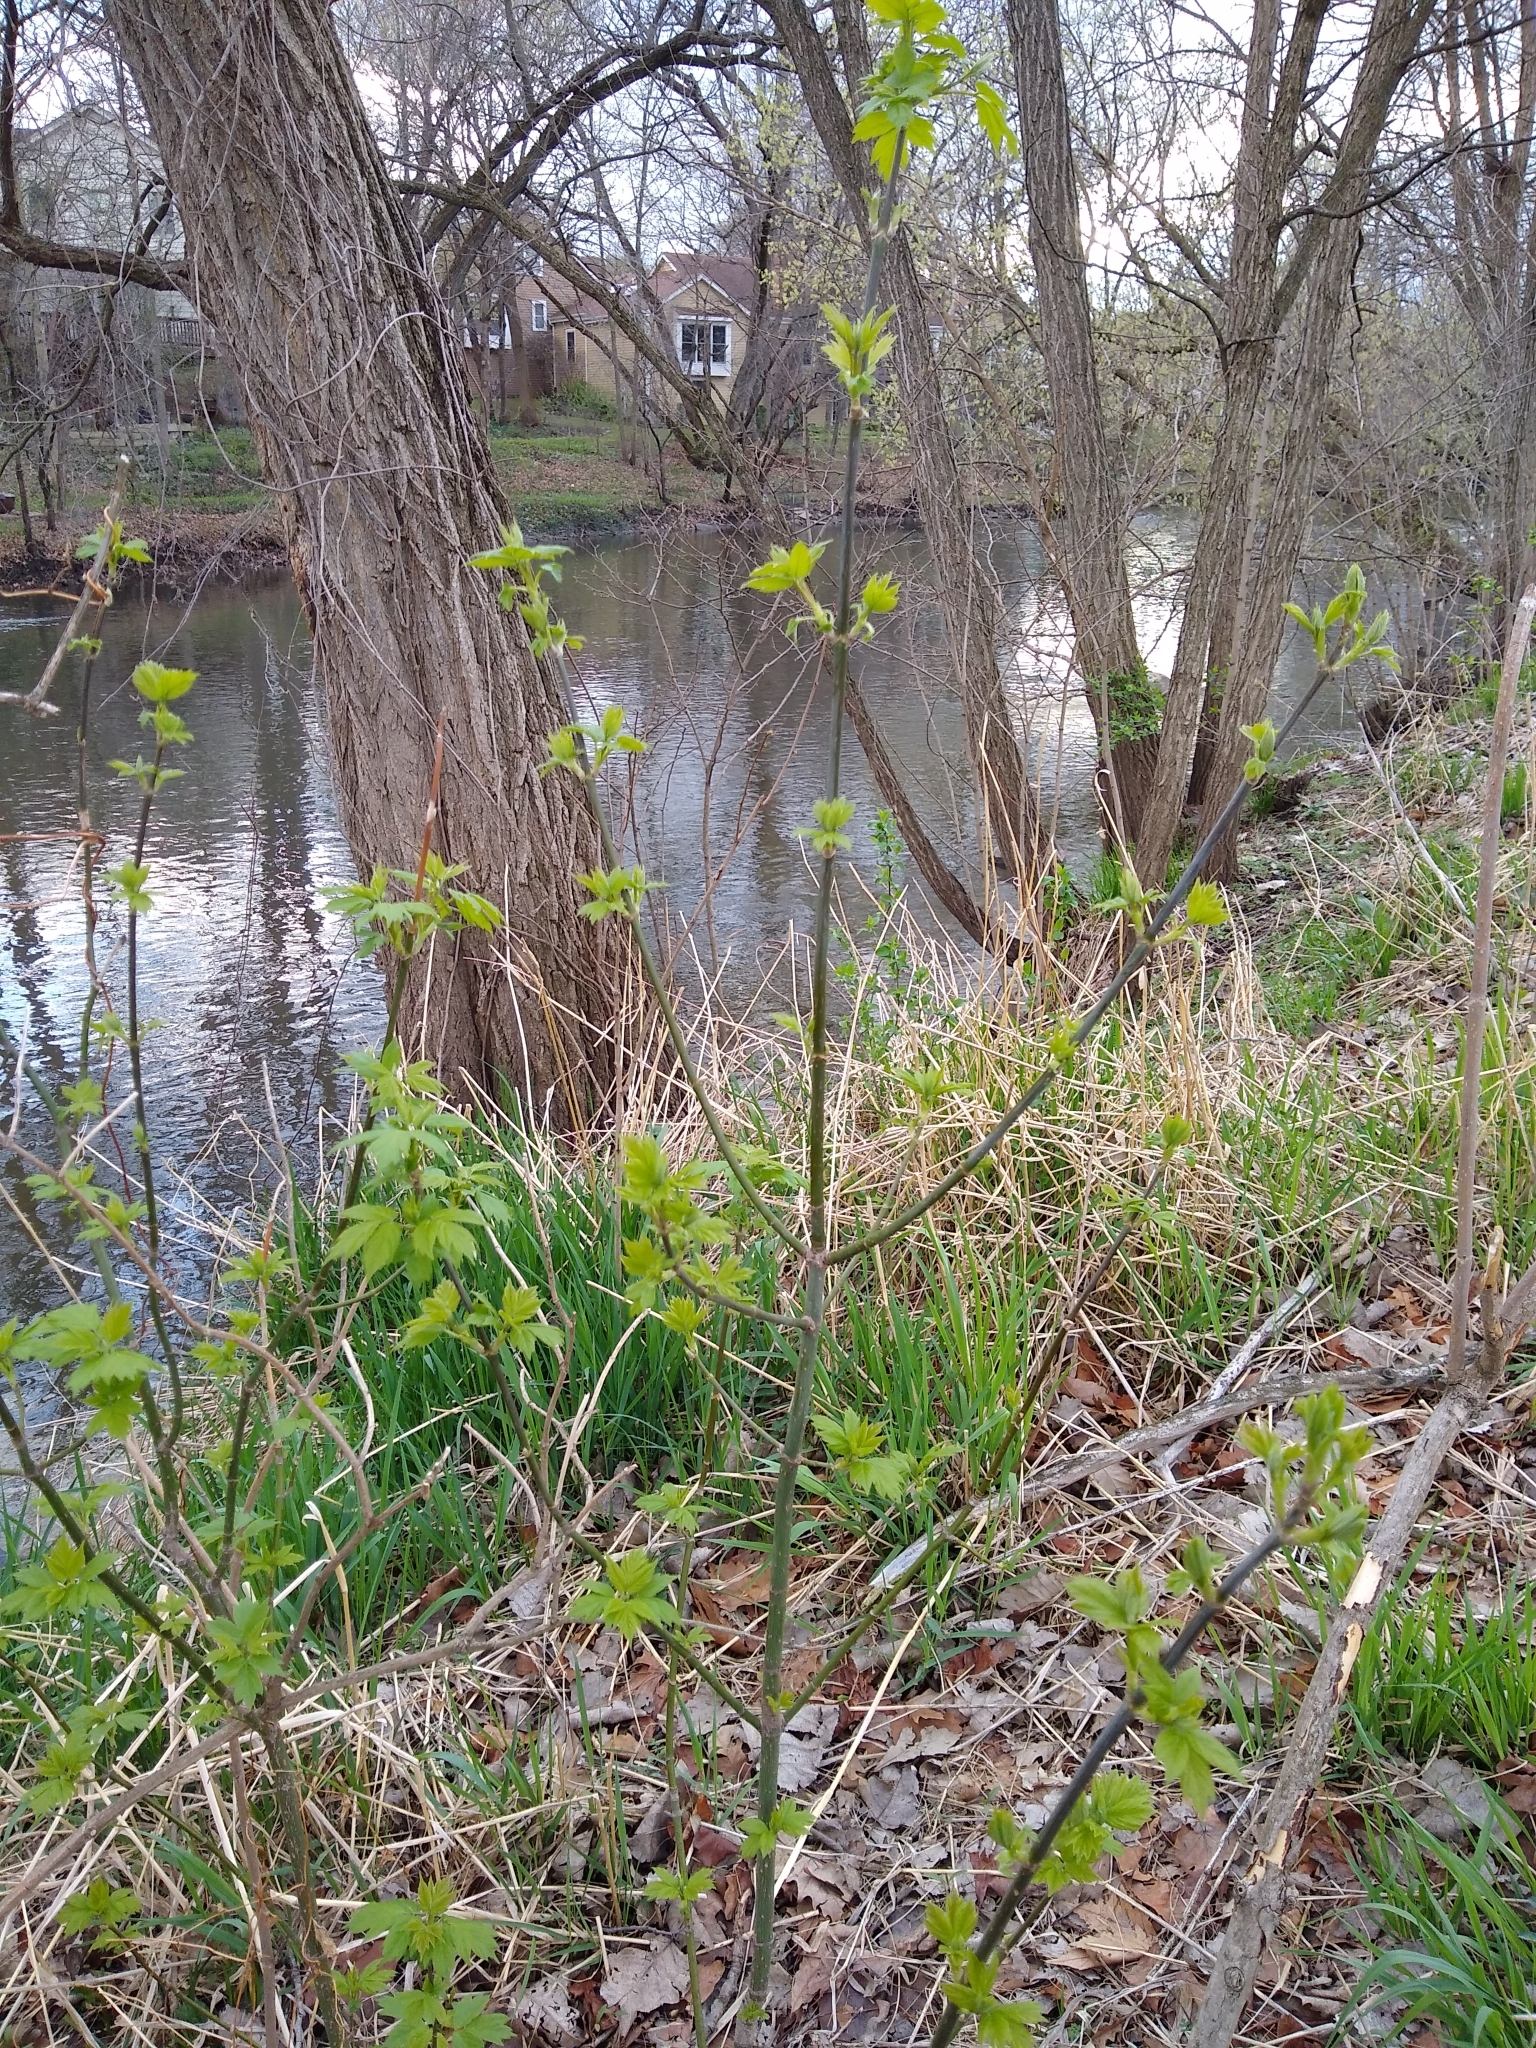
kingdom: Plantae
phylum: Tracheophyta
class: Magnoliopsida
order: Sapindales
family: Sapindaceae
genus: Acer
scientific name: Acer negundo
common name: Ashleaf maple
